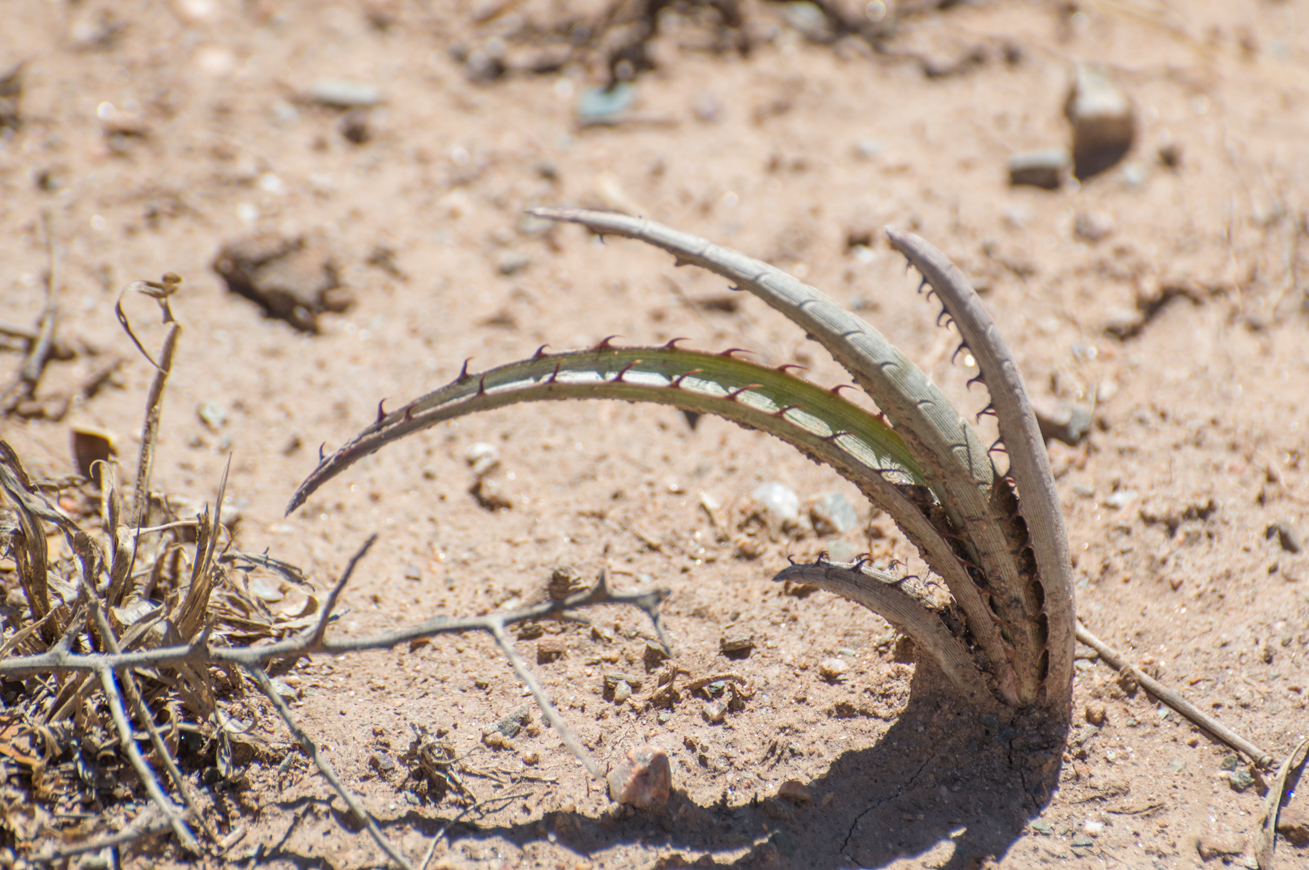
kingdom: Plantae
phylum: Tracheophyta
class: Liliopsida
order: Poales
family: Bromeliaceae
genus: Deinacanthon
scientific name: Deinacanthon urbanianum
